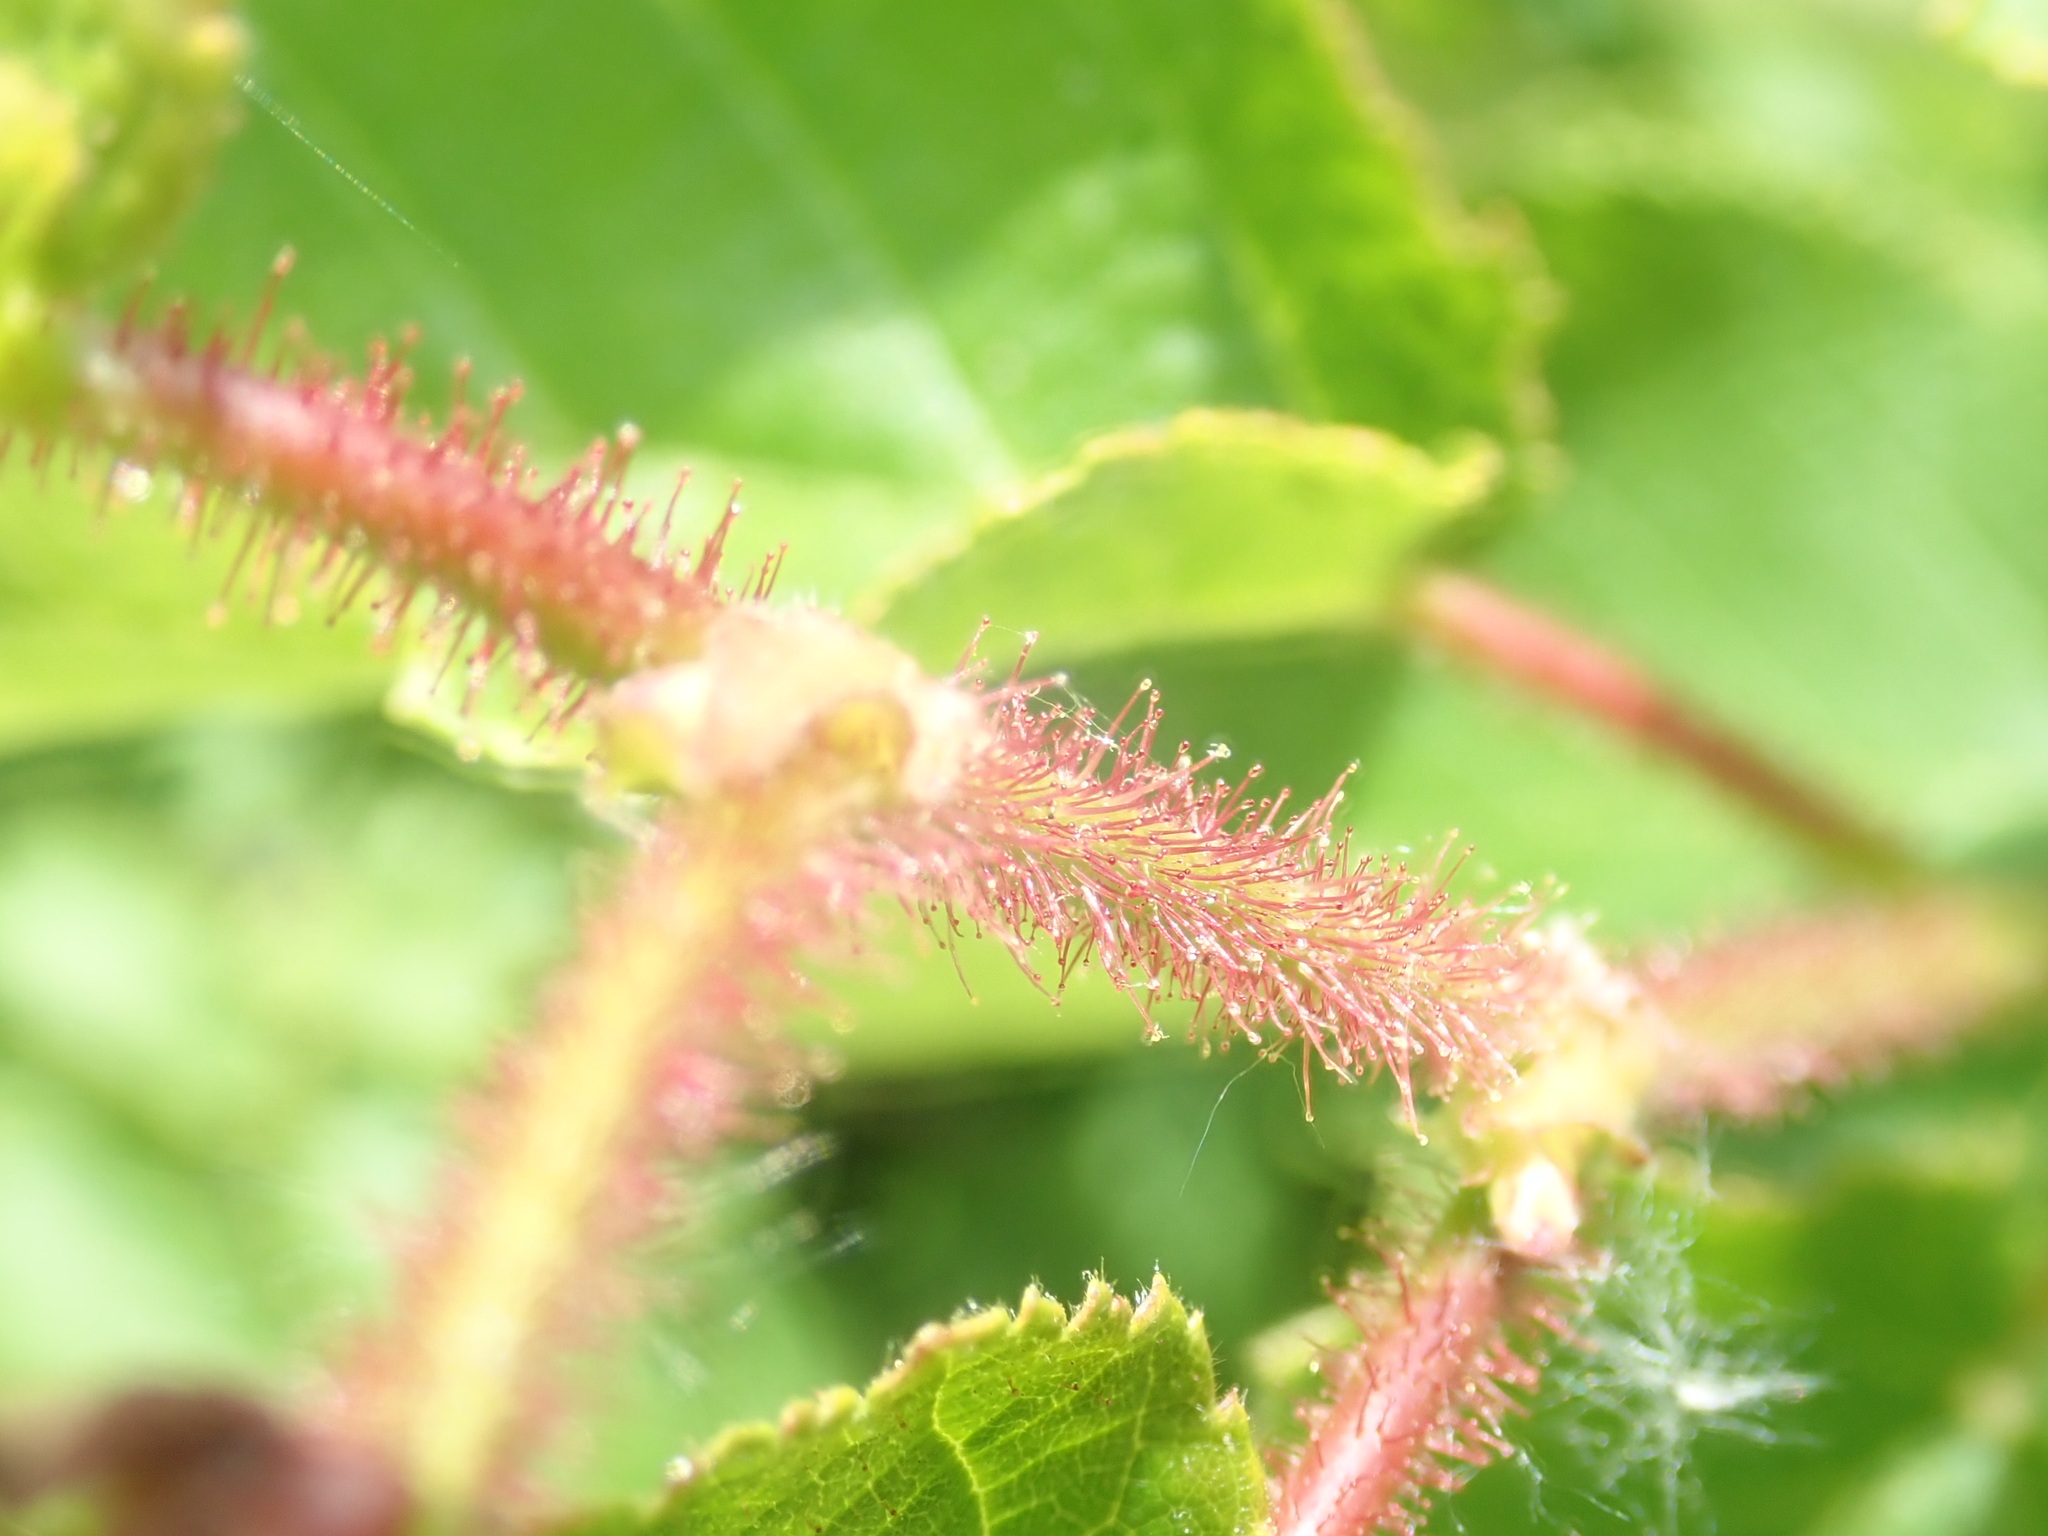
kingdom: Plantae
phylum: Tracheophyta
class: Magnoliopsida
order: Fagales
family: Betulaceae
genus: Corylus
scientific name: Corylus americana
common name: American hazel
